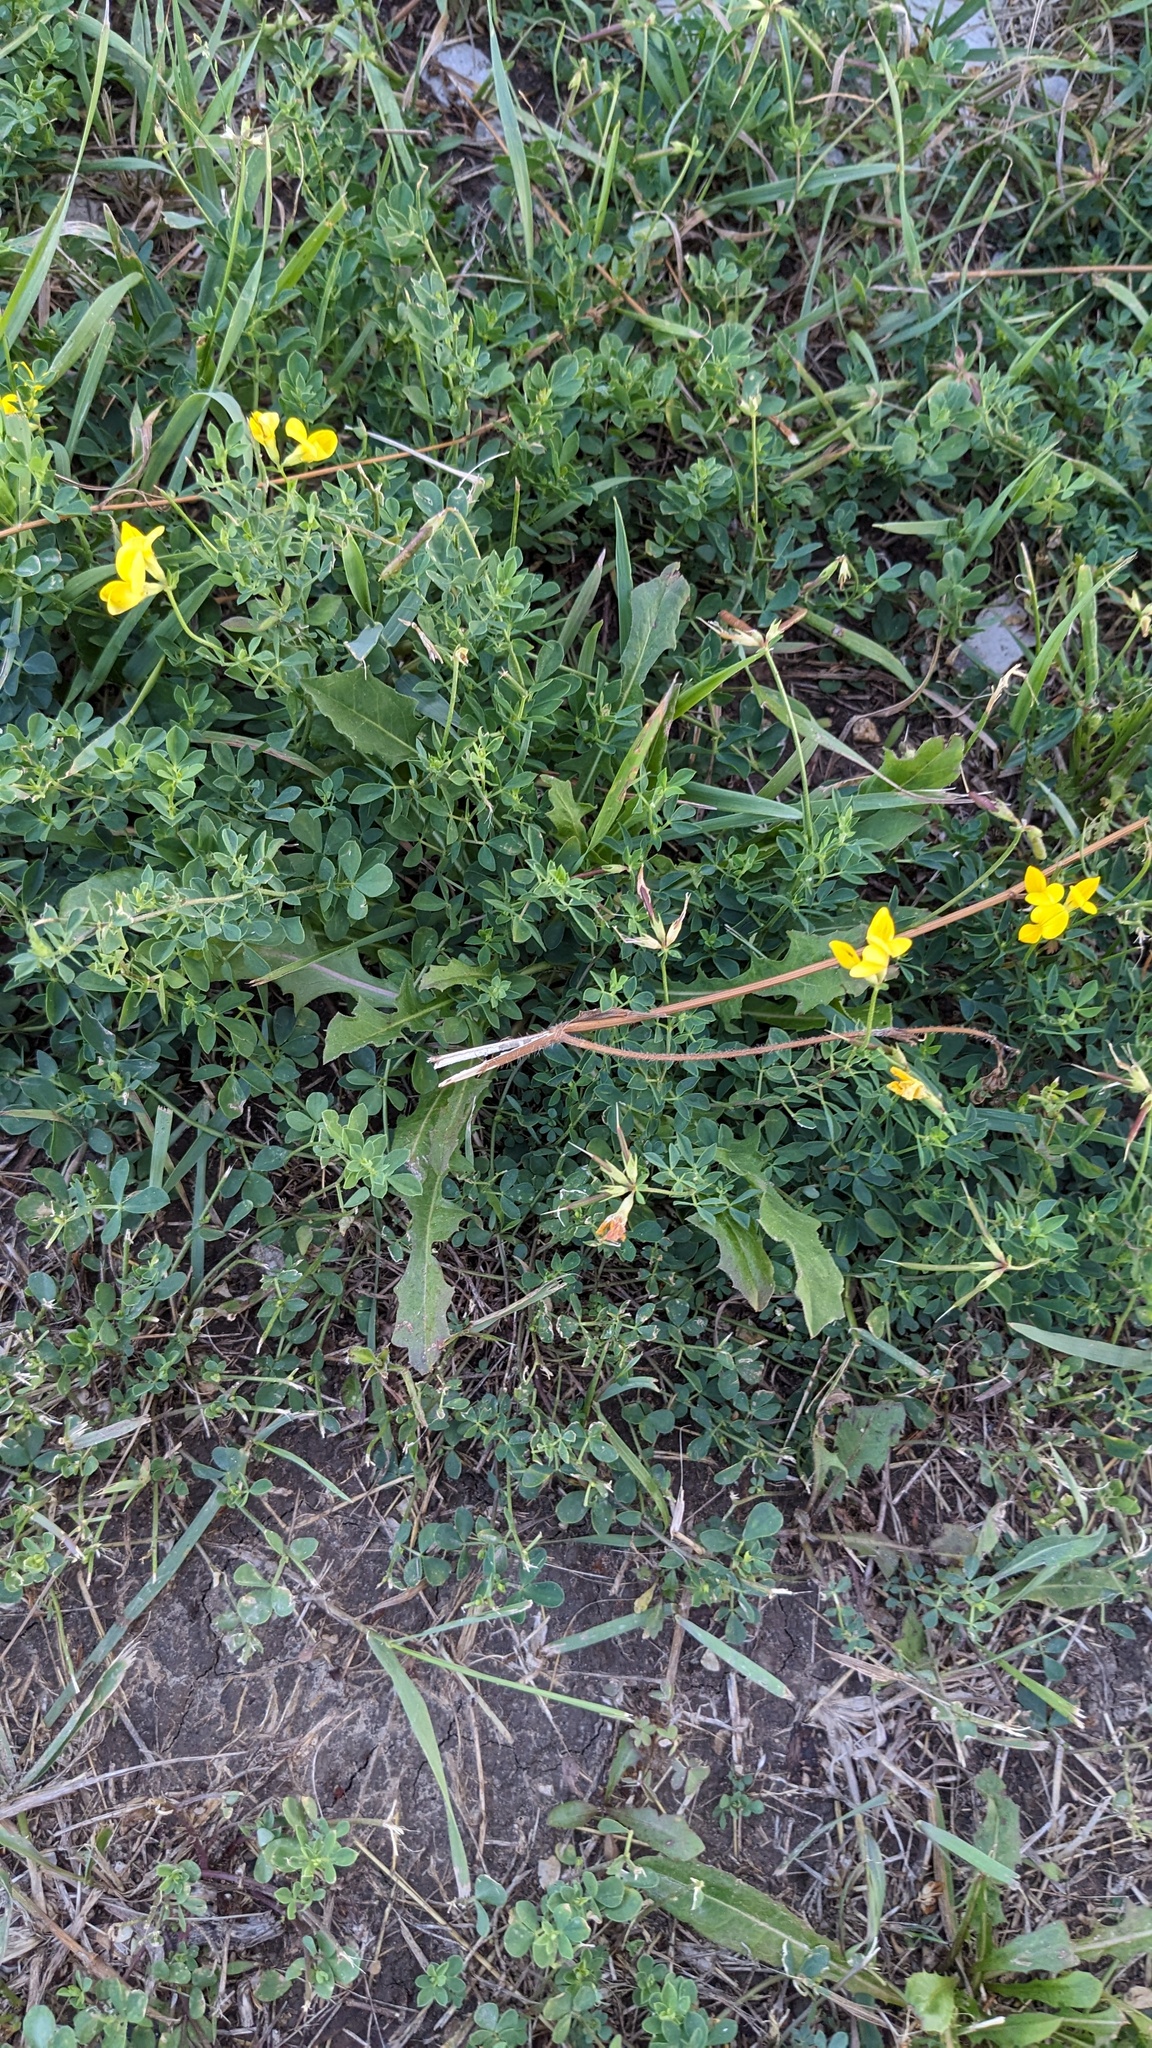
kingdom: Plantae
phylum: Tracheophyta
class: Magnoliopsida
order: Fabales
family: Fabaceae
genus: Lotus
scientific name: Lotus corniculatus
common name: Common bird's-foot-trefoil
